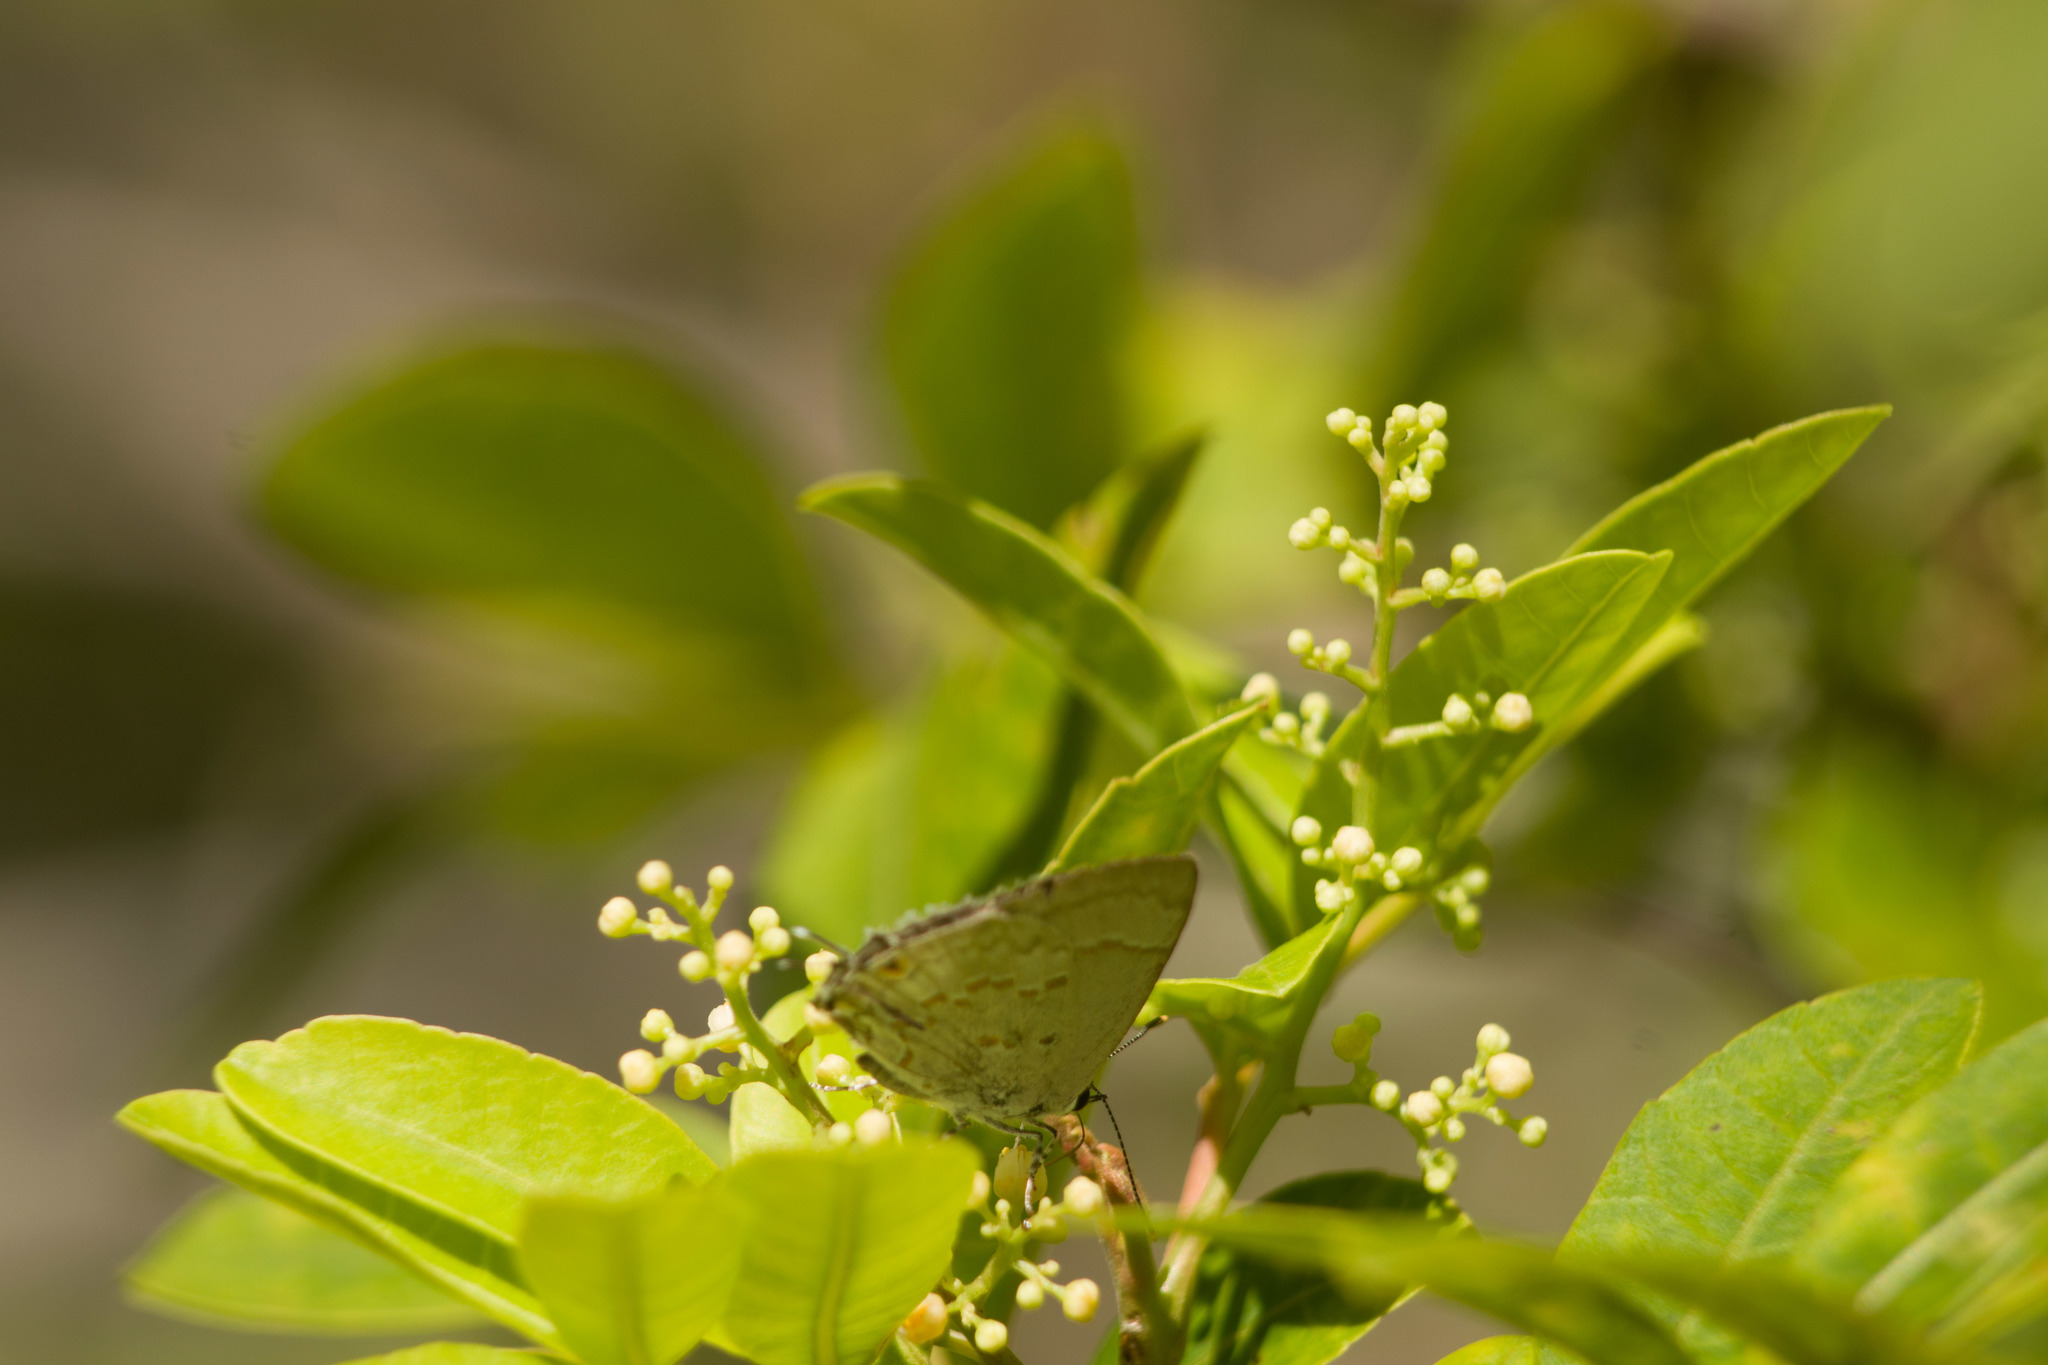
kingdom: Animalia
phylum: Arthropoda
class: Insecta
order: Lepidoptera
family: Lycaenidae
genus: Tmolus
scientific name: Tmolus echion
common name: Red-spotted hairstreak
